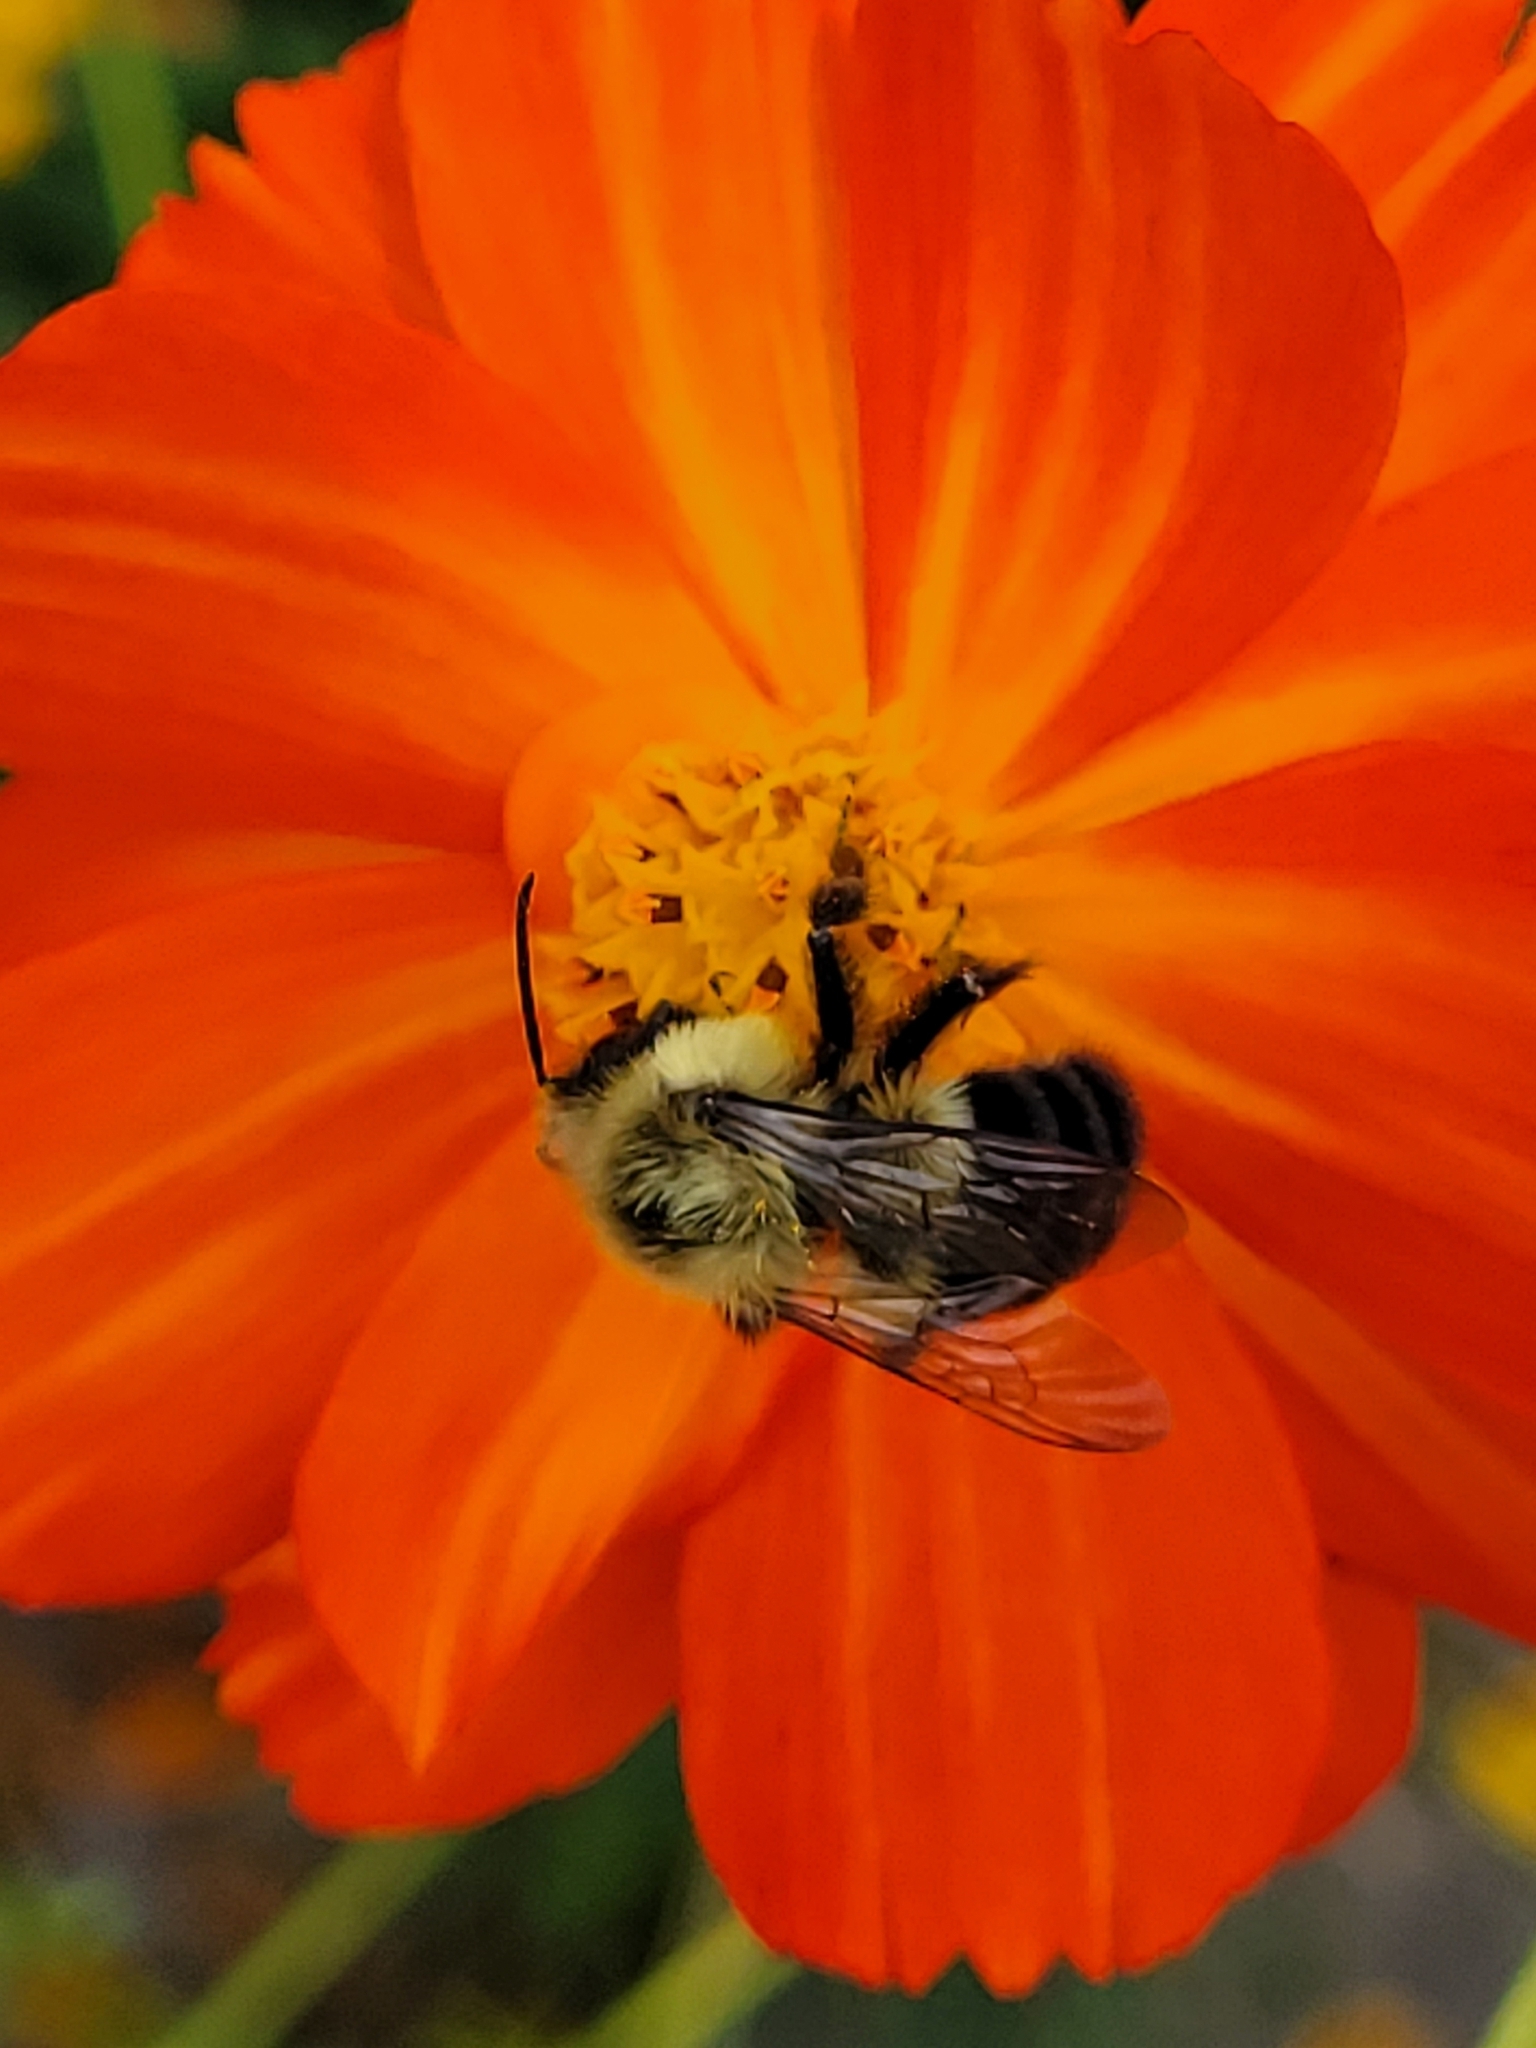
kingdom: Animalia
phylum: Arthropoda
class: Insecta
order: Hymenoptera
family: Apidae
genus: Bombus
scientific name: Bombus impatiens
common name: Common eastern bumble bee
